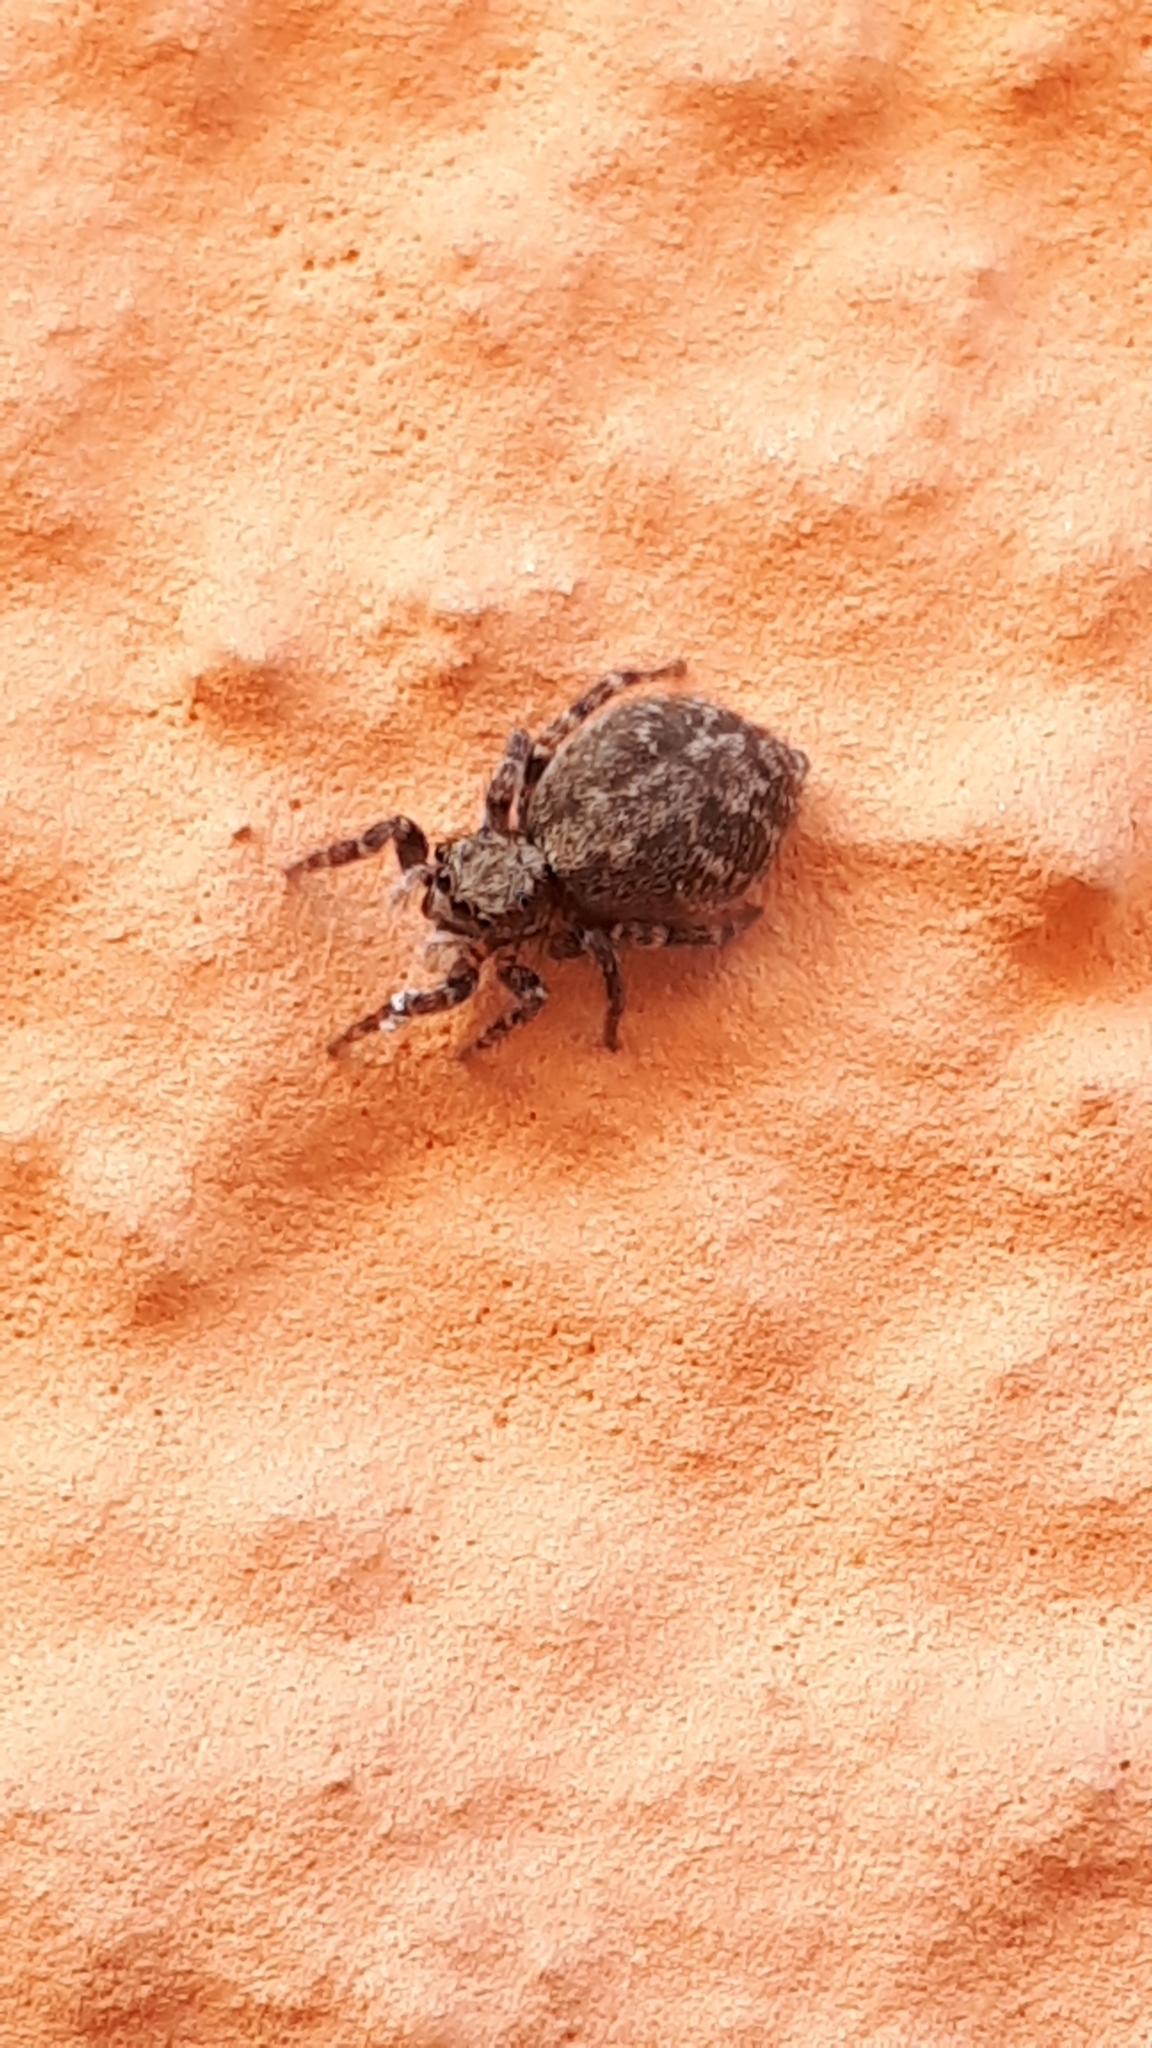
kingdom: Animalia
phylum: Arthropoda
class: Arachnida
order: Araneae
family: Salticidae
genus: Pseudeuophrys
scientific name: Pseudeuophrys lanigera
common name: Jumping spider
